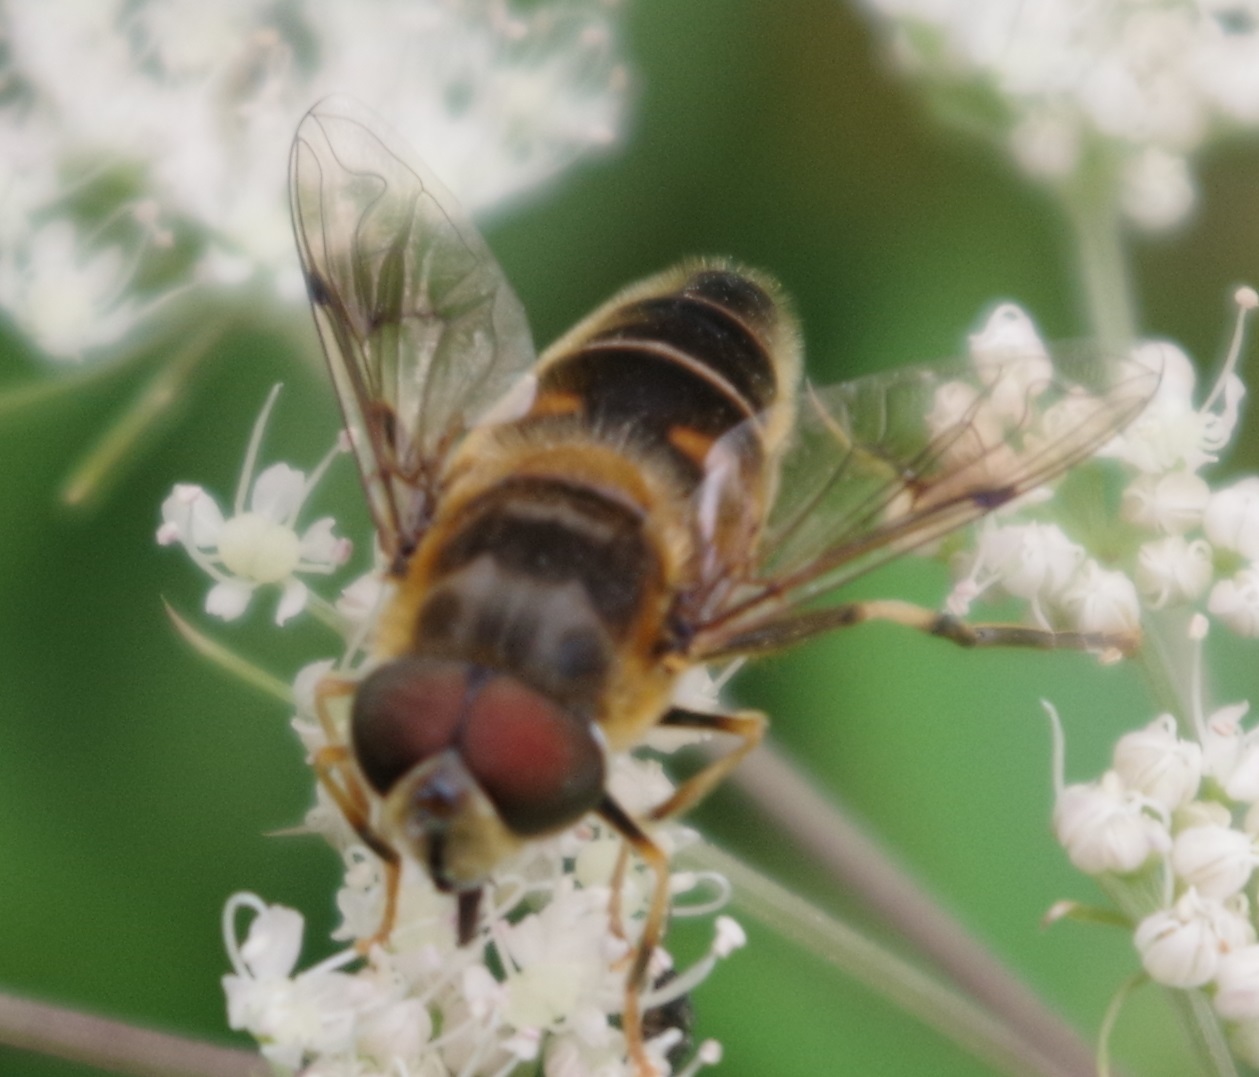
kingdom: Animalia
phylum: Arthropoda
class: Insecta
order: Diptera
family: Syrphidae
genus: Eristalis
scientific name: Eristalis pertinax
